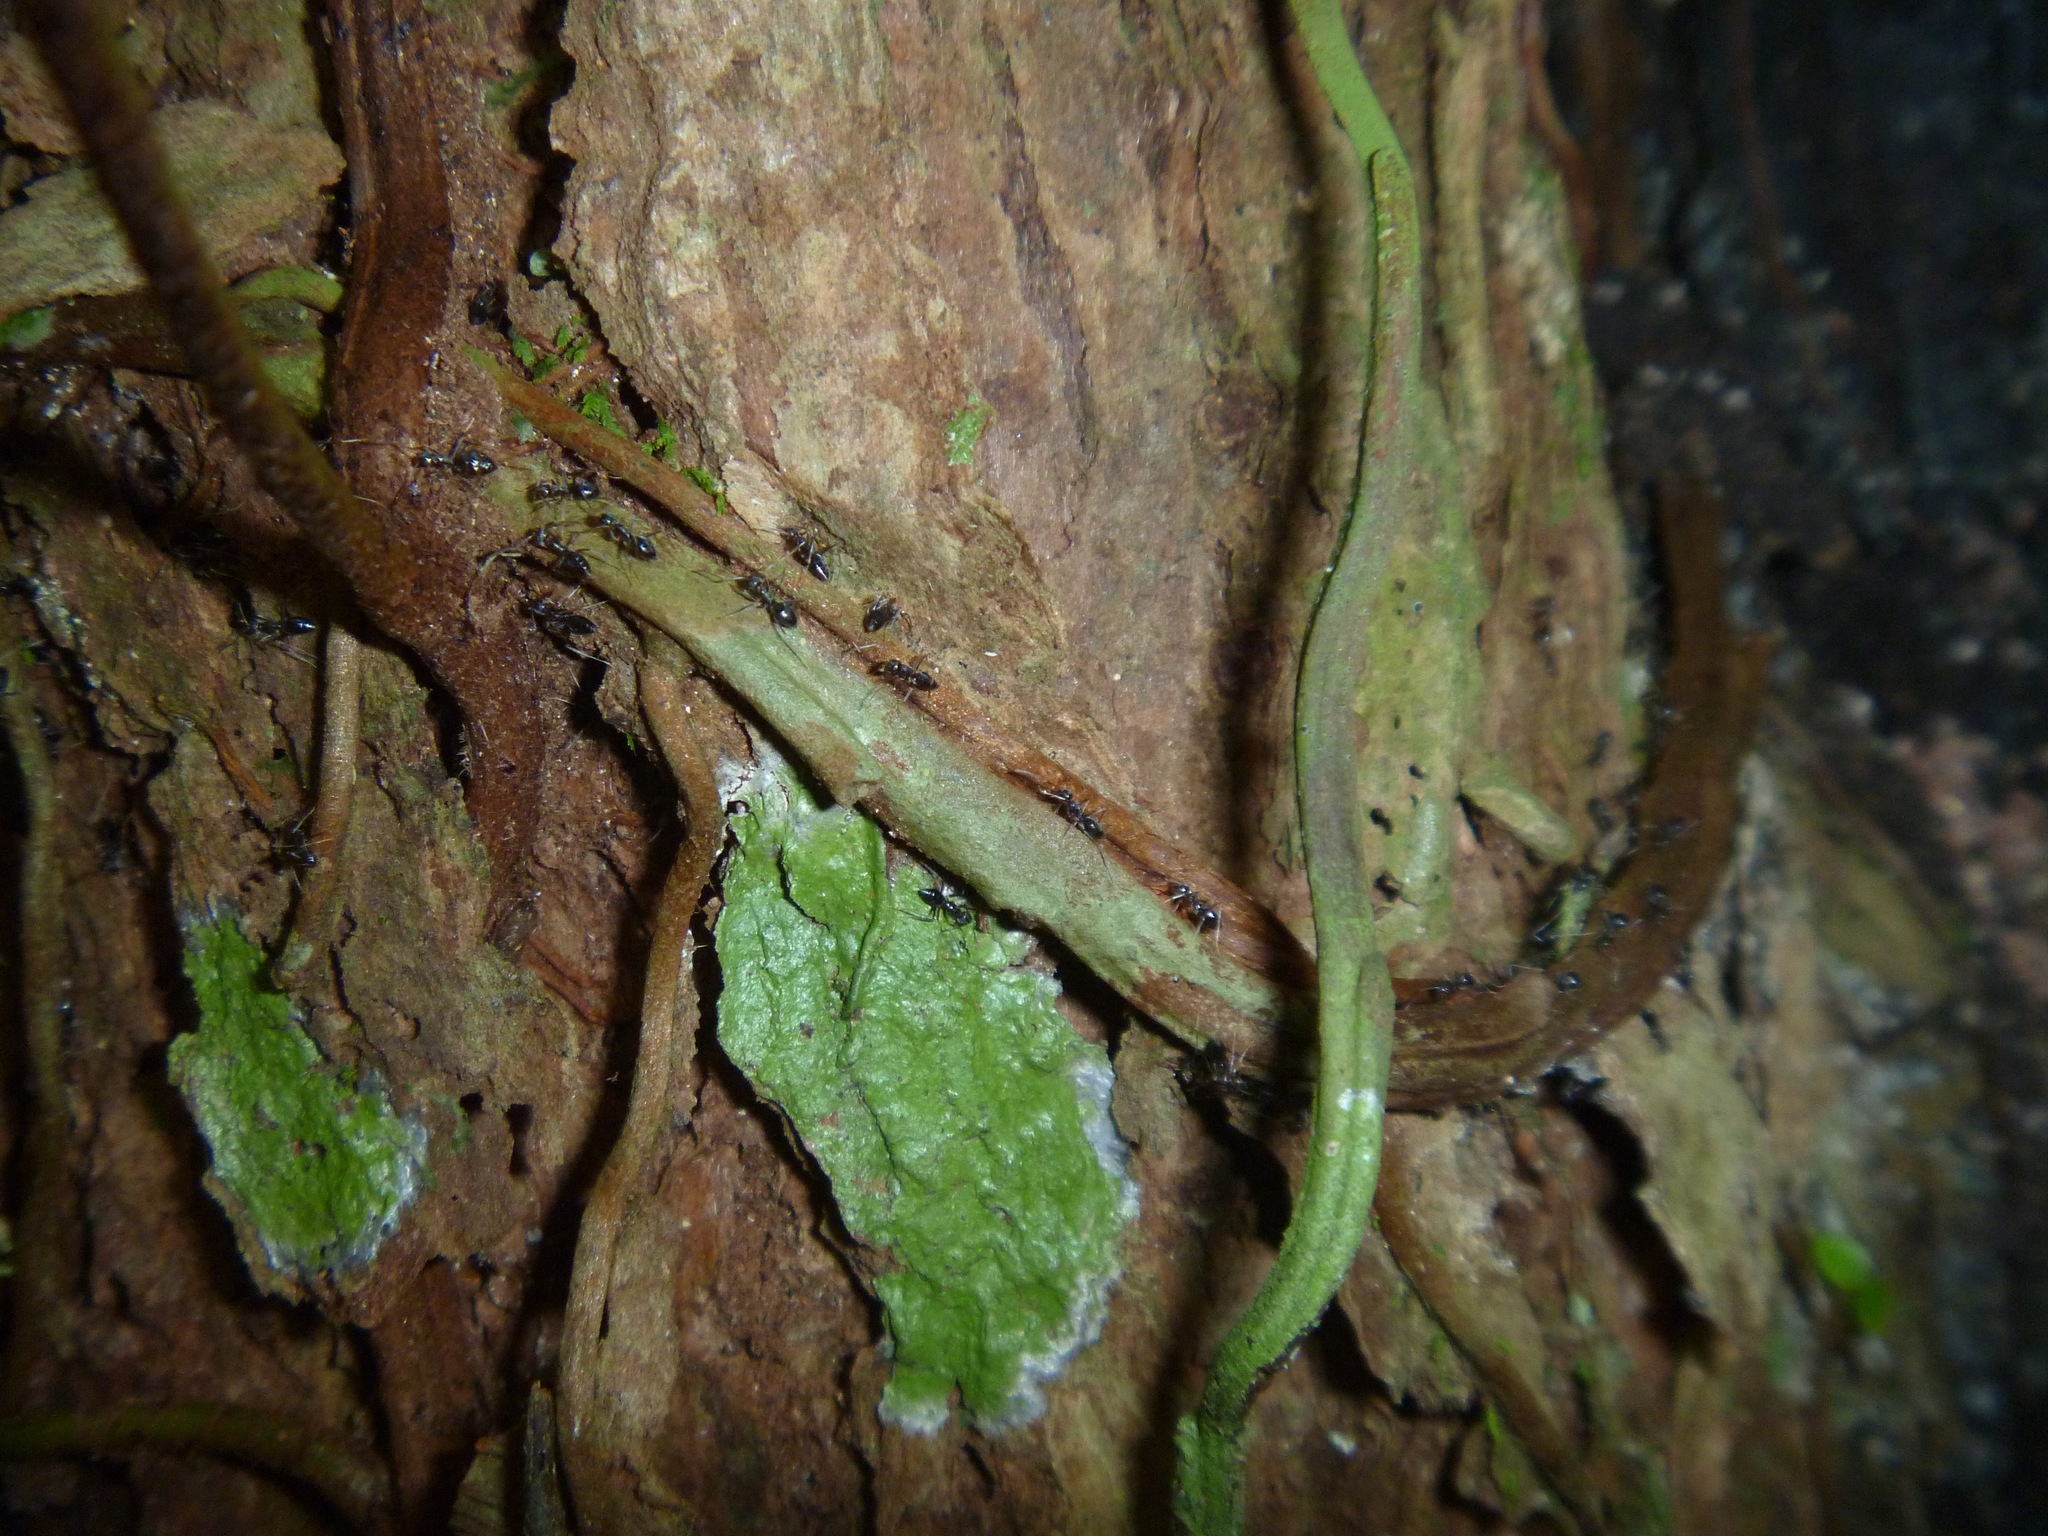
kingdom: Animalia
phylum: Arthropoda
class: Insecta
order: Hymenoptera
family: Formicidae
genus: Paratrechina
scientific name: Paratrechina caledonica
